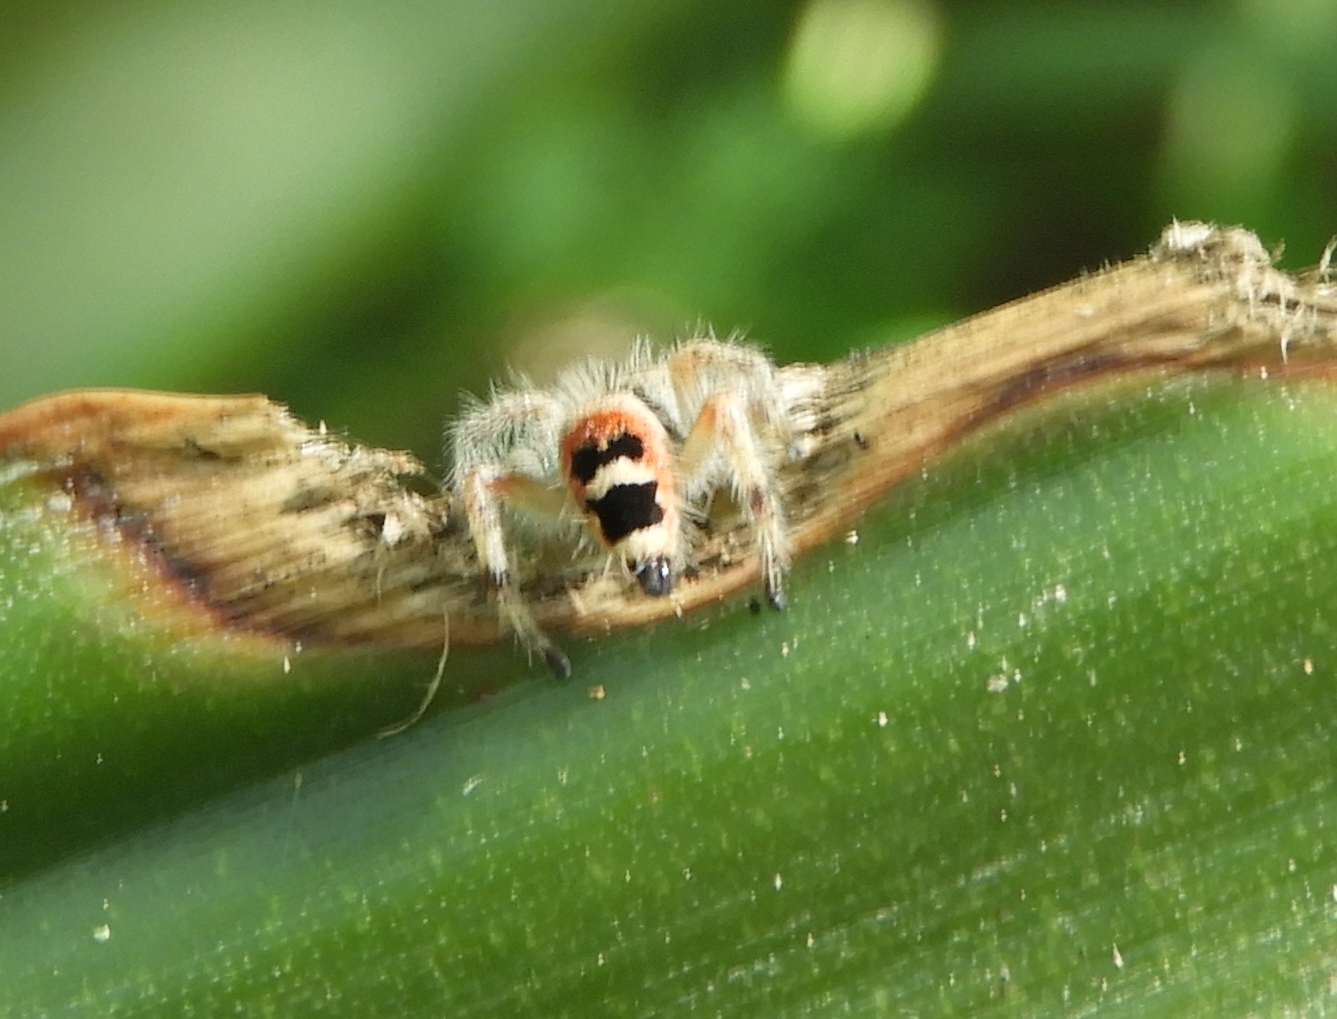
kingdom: Animalia
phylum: Arthropoda
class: Arachnida
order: Araneae
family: Salticidae
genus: Phidippus
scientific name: Phidippus pacosauritus
